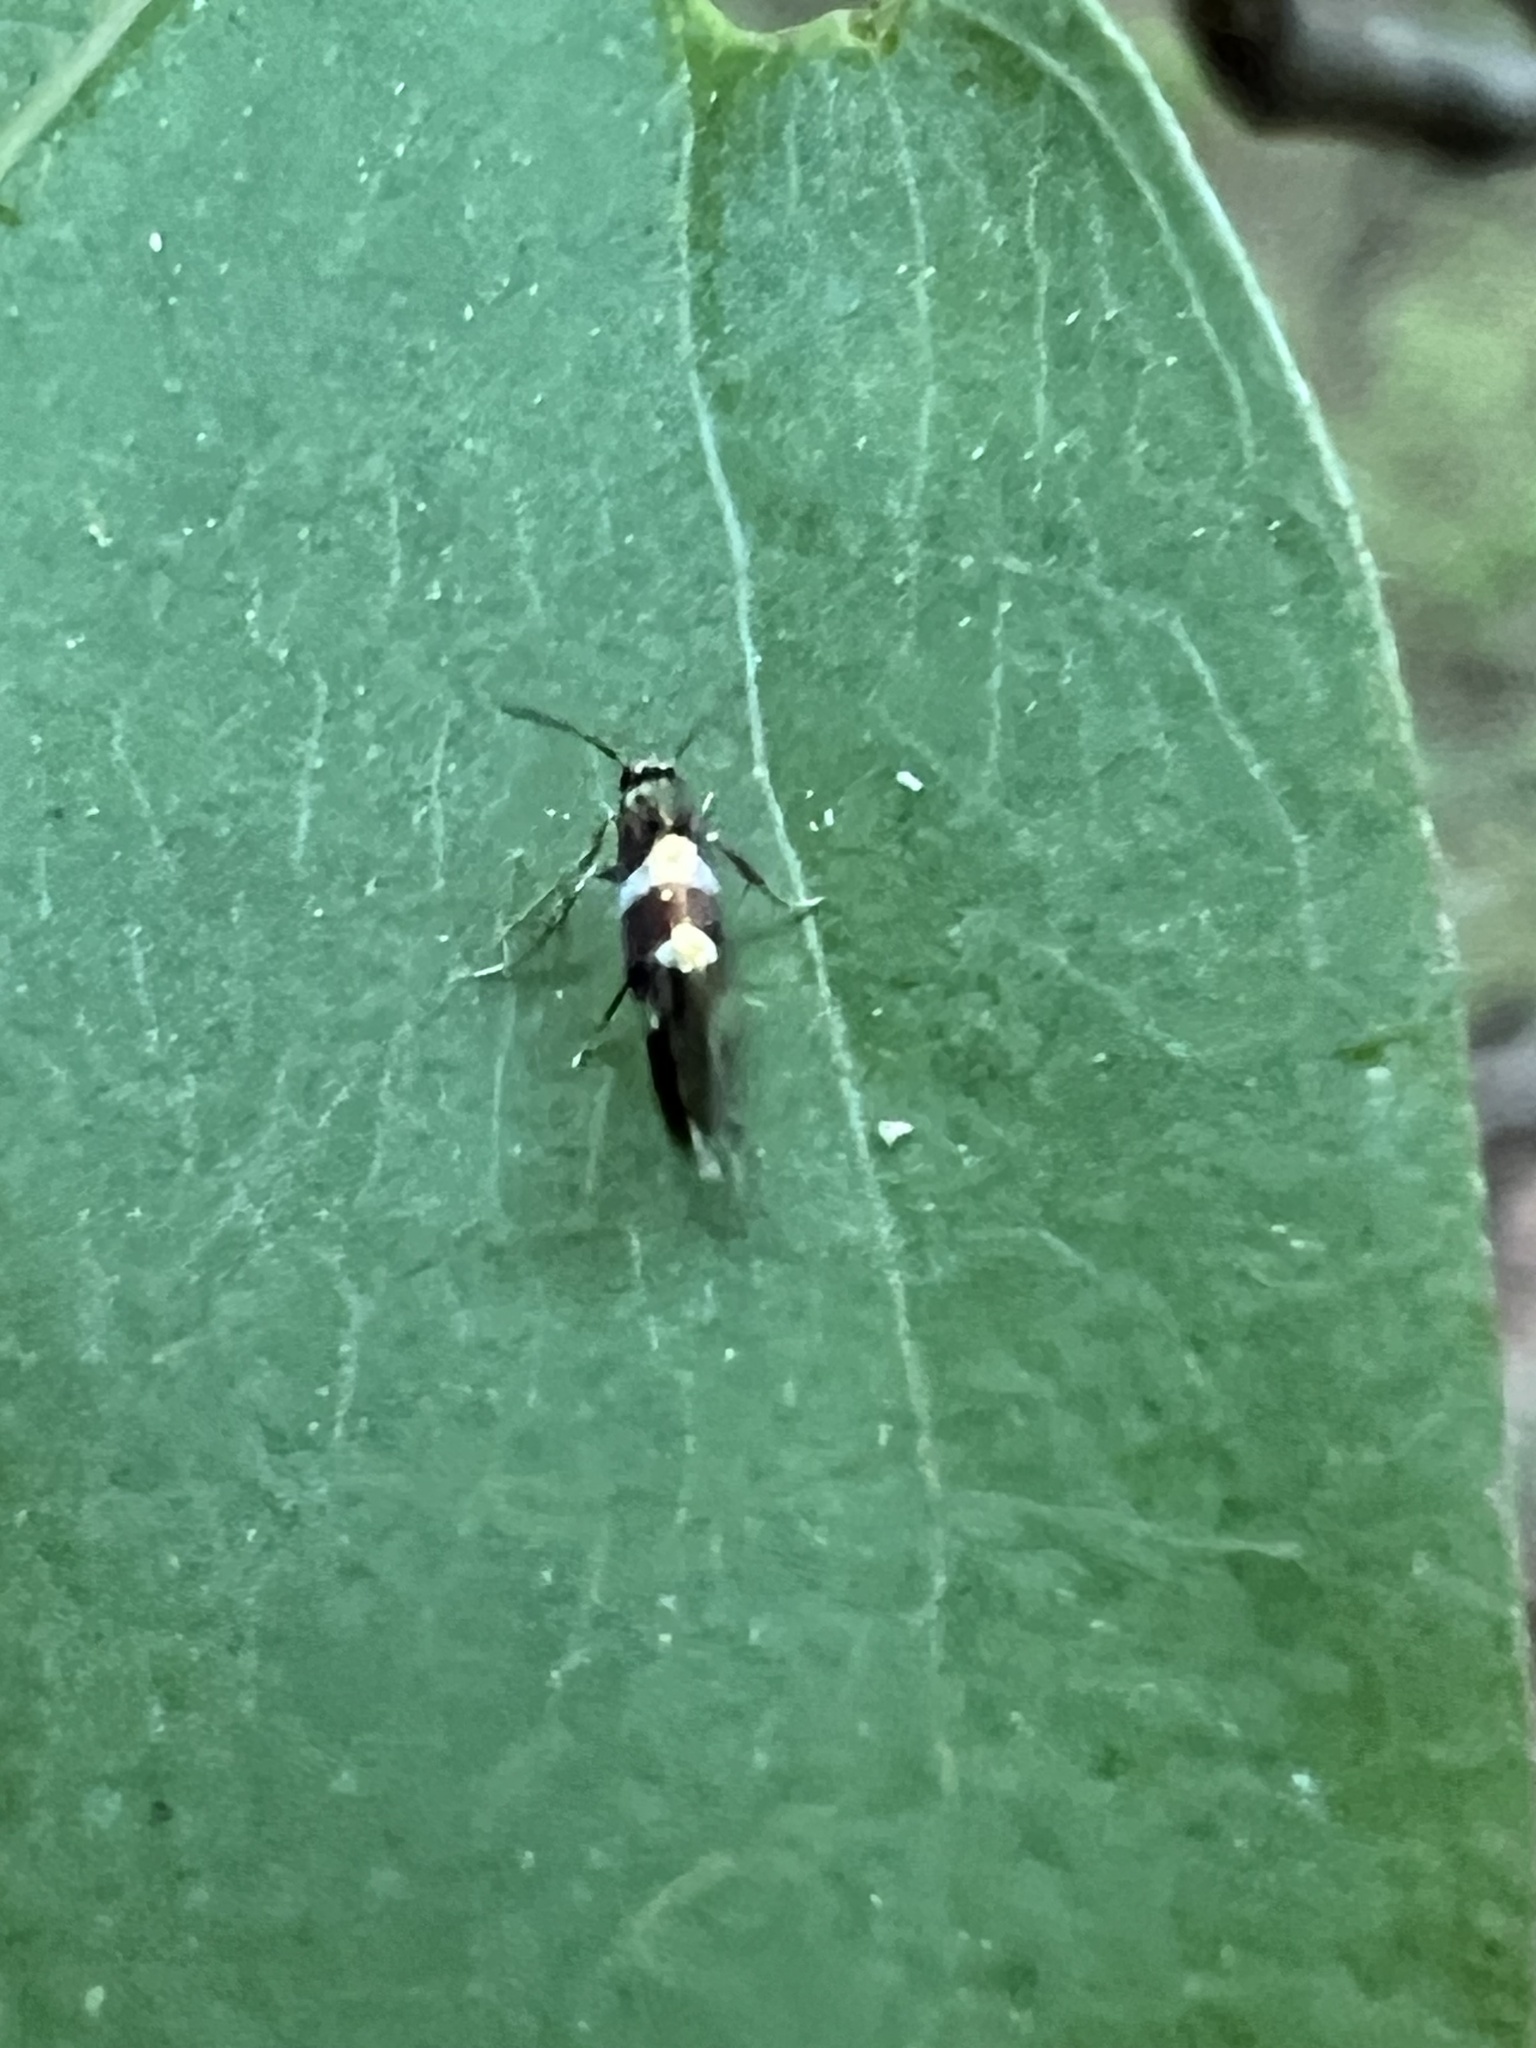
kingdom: Animalia
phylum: Arthropoda
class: Insecta
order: Lepidoptera
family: Heliozelidae
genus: Antispila
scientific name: Antispila nyssaefoliella
